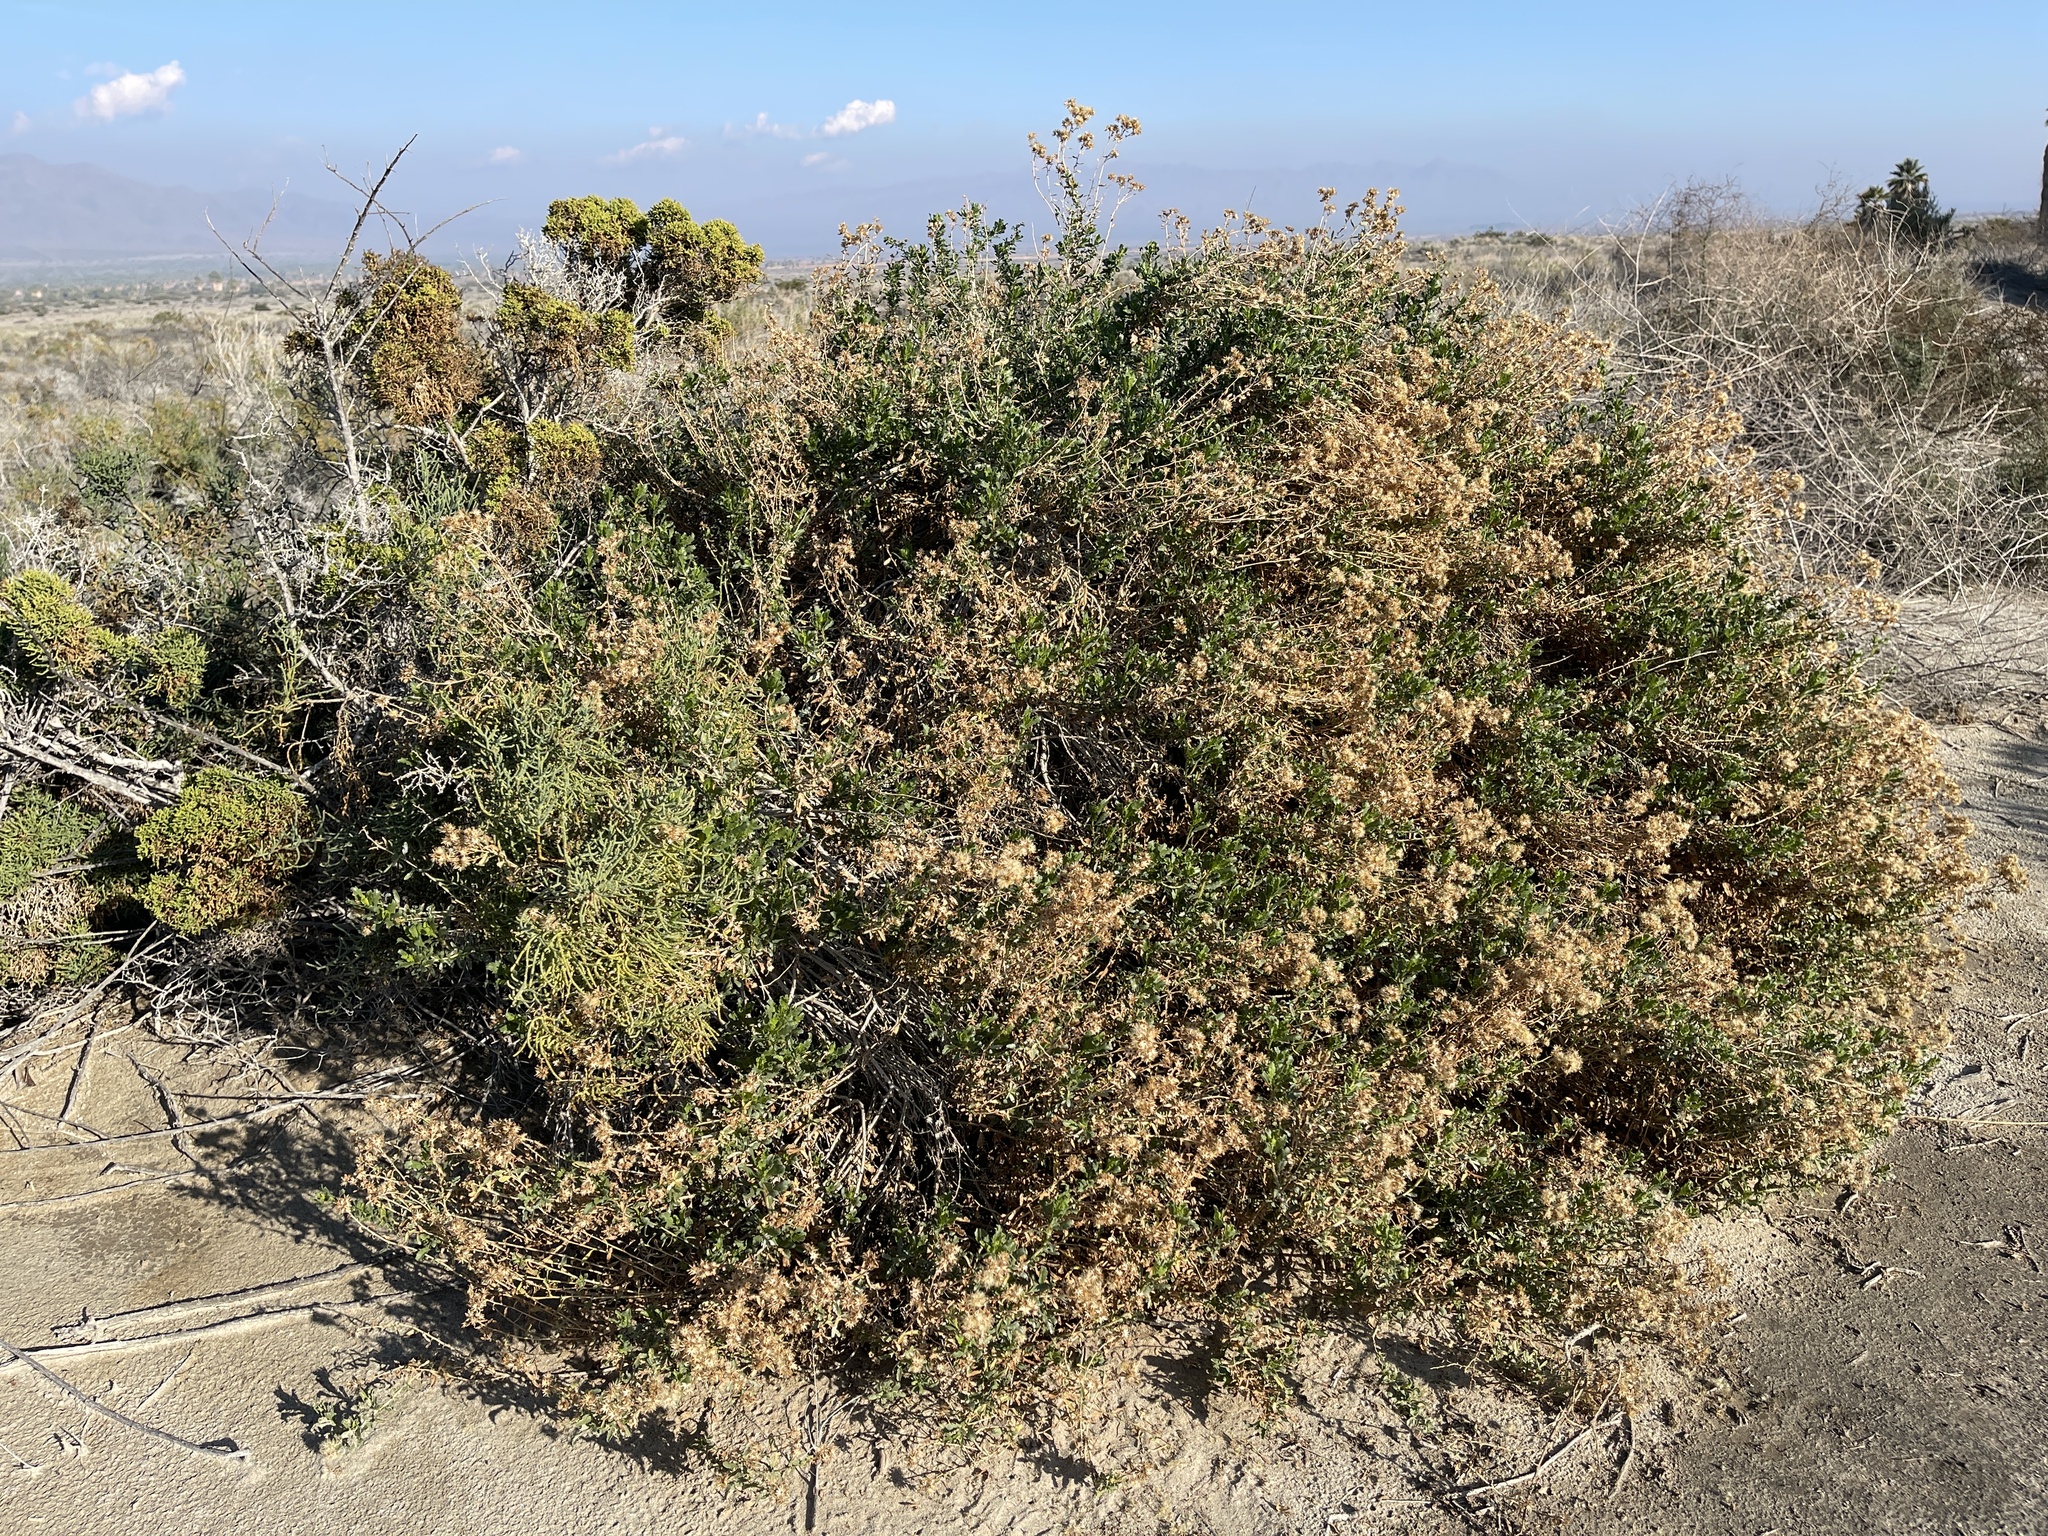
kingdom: Plantae
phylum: Tracheophyta
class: Magnoliopsida
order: Asterales
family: Asteraceae
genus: Isocoma
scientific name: Isocoma acradenia
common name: Alkali jimmyweed
